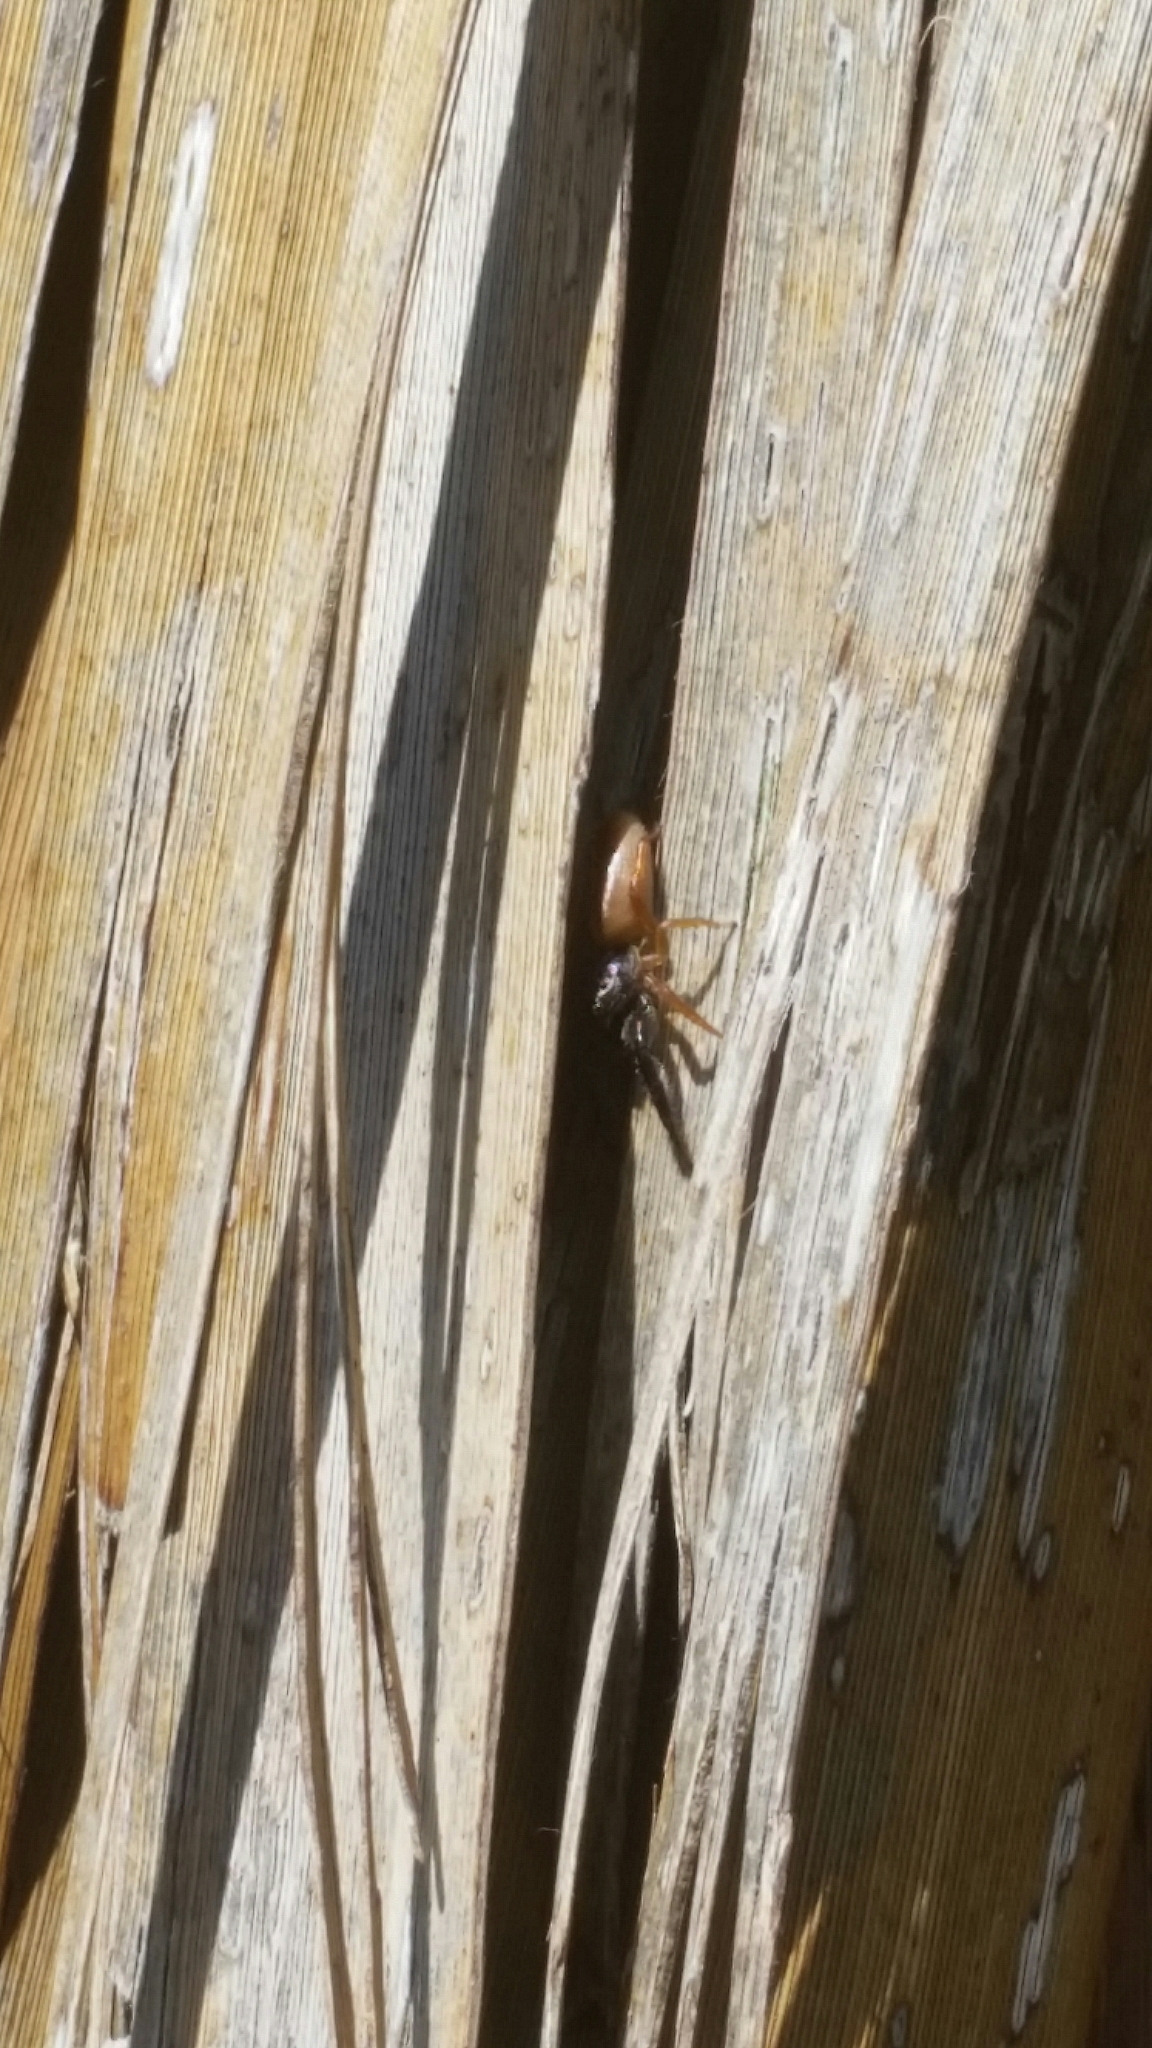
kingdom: Animalia
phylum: Arthropoda
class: Arachnida
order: Araneae
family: Salticidae
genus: Trite
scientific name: Trite planiceps
